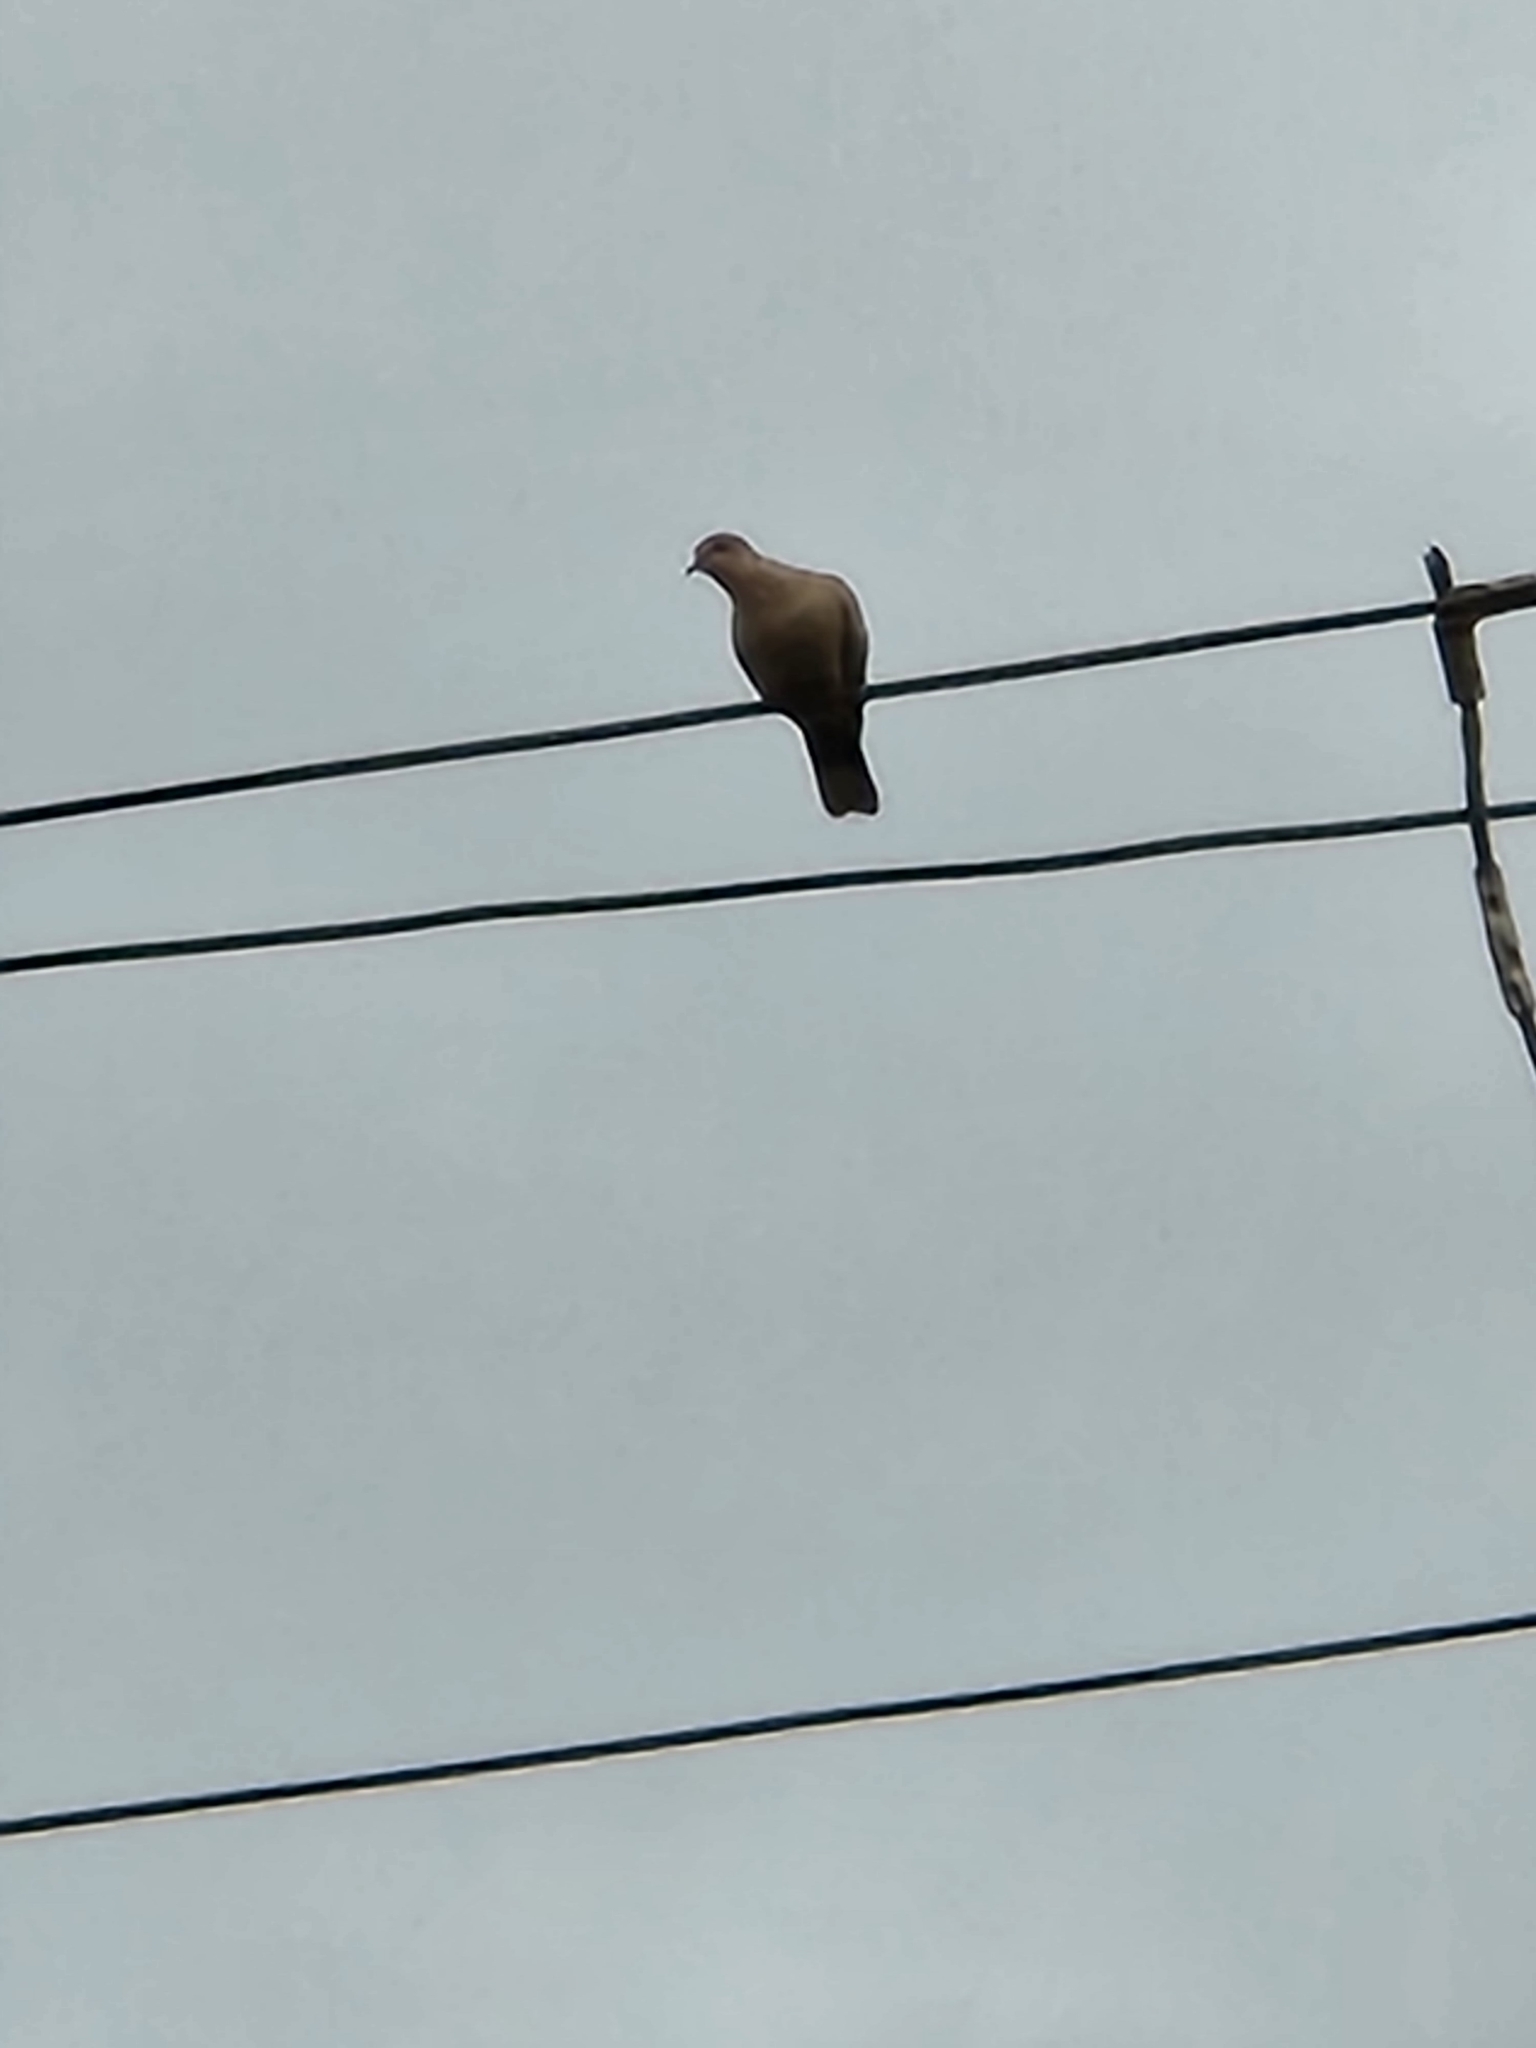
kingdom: Animalia
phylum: Chordata
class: Aves
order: Columbiformes
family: Columbidae
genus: Streptopelia
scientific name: Streptopelia decaocto
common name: Eurasian collared dove
